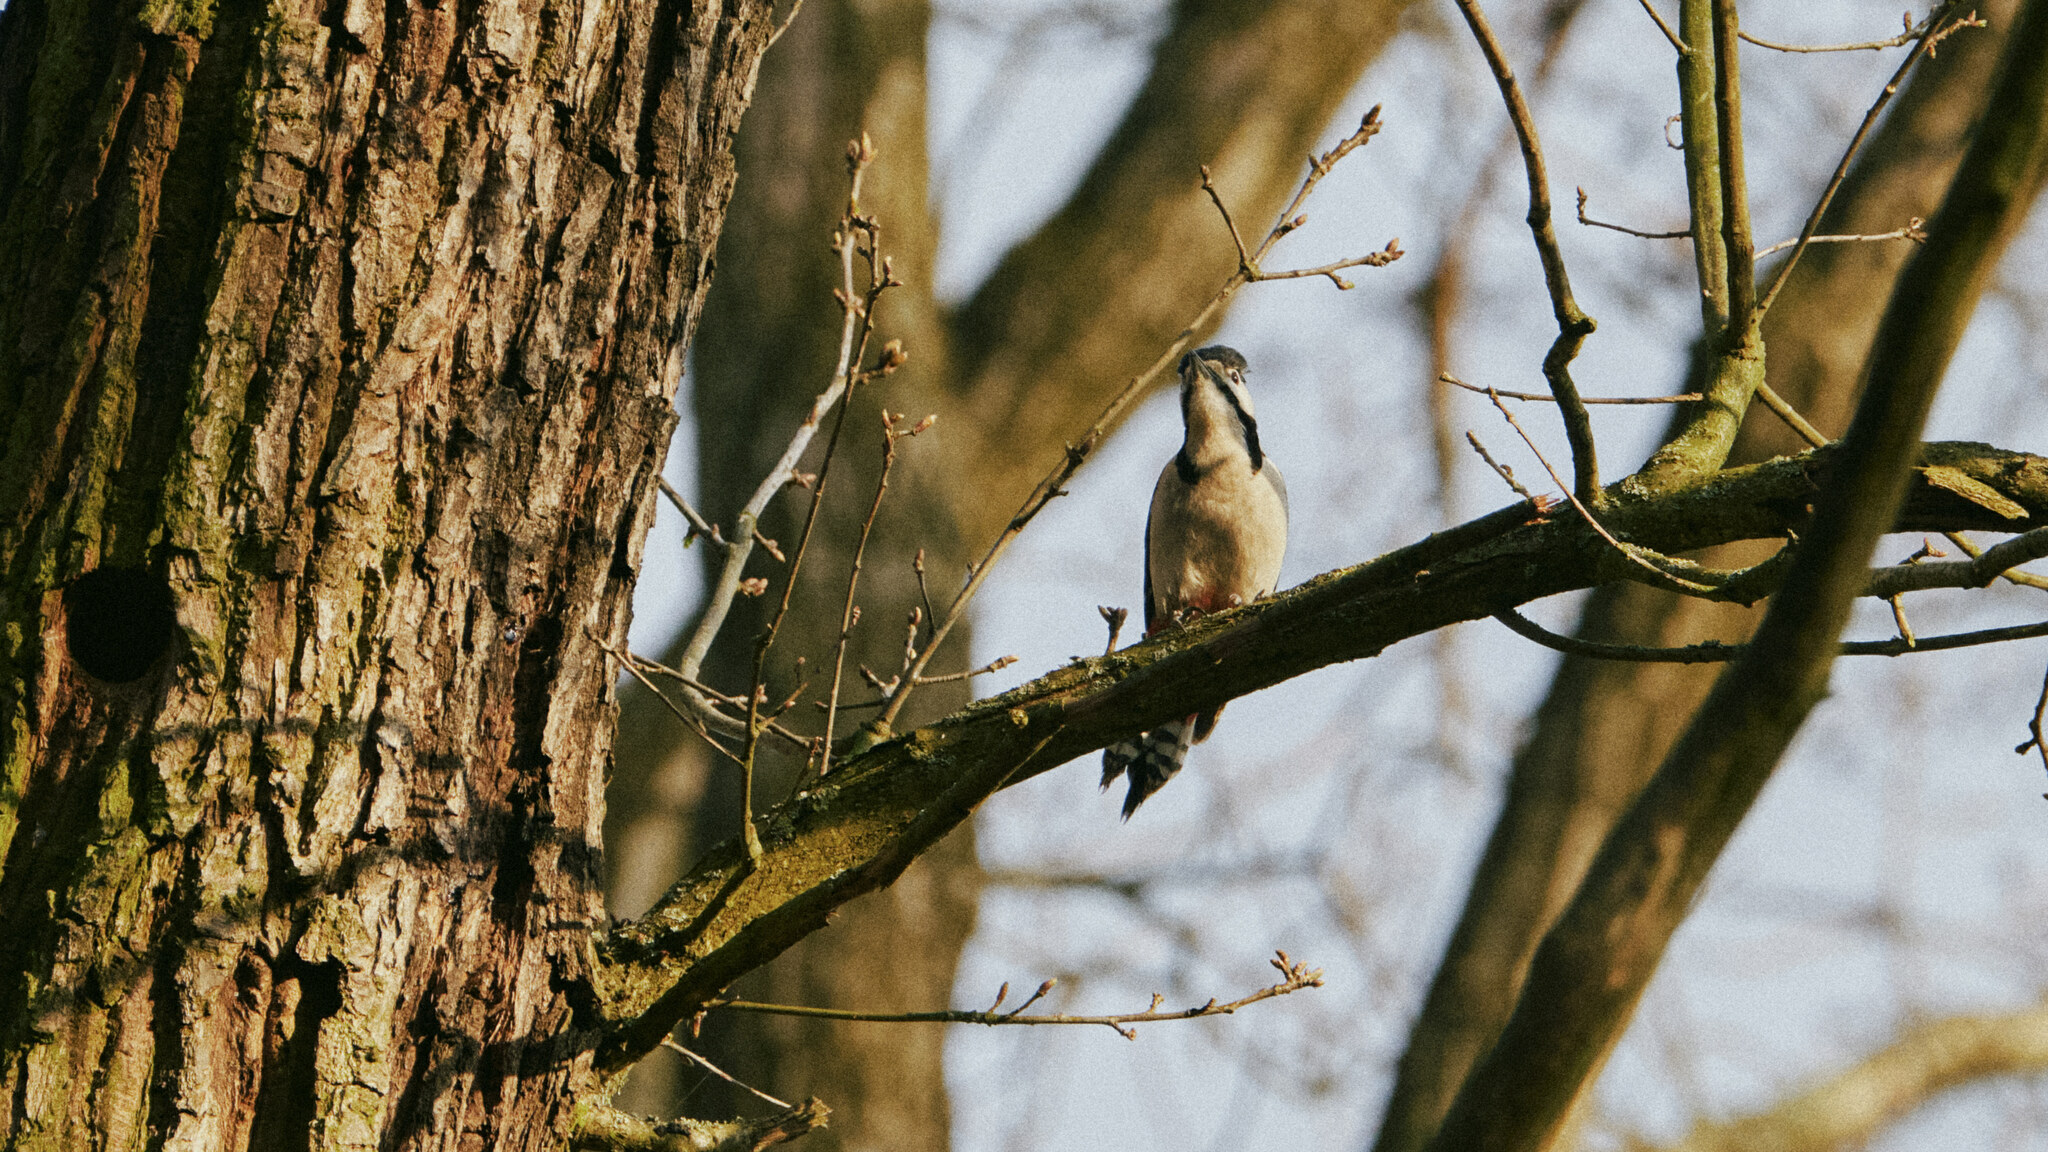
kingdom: Animalia
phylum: Chordata
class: Aves
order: Piciformes
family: Picidae
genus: Dendrocopos
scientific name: Dendrocopos major
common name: Great spotted woodpecker
